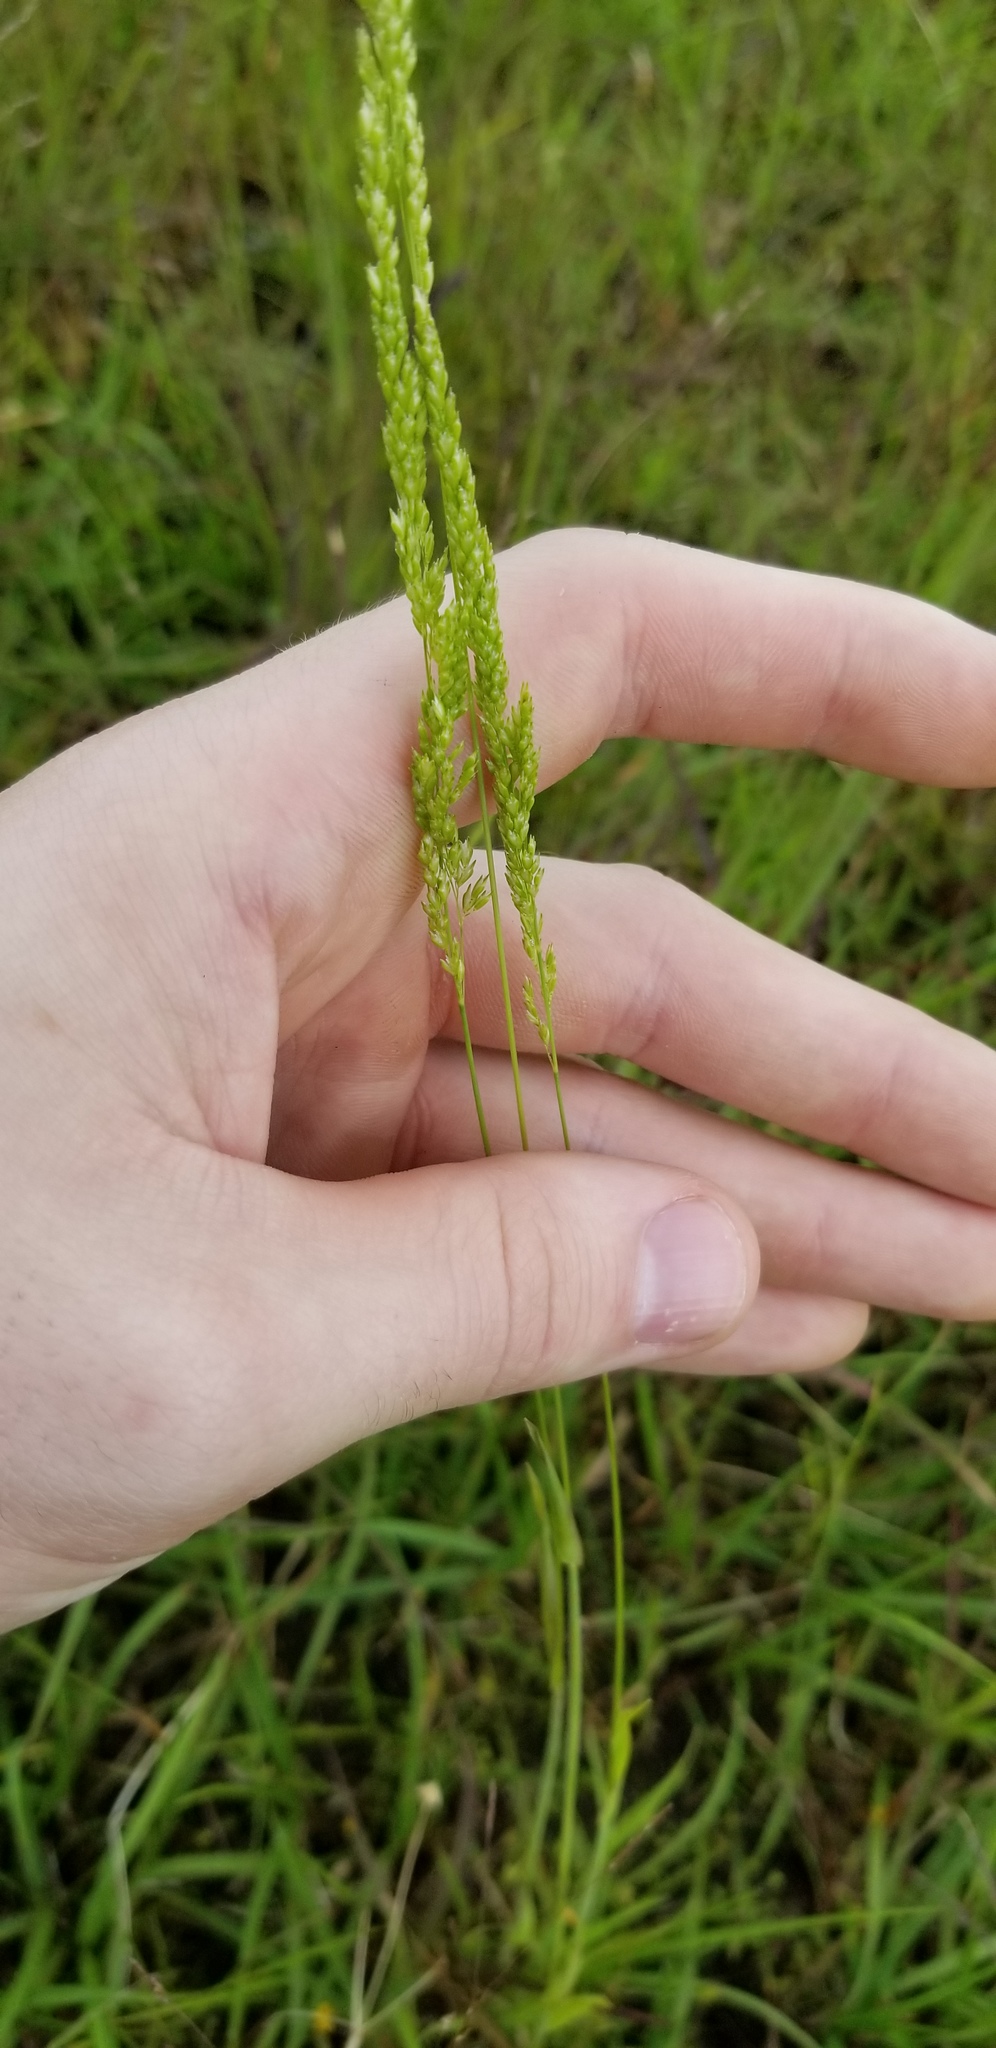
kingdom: Plantae
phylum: Tracheophyta
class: Liliopsida
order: Poales
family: Poaceae
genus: Sphenopholis
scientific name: Sphenopholis obtusata
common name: Prairie grass
